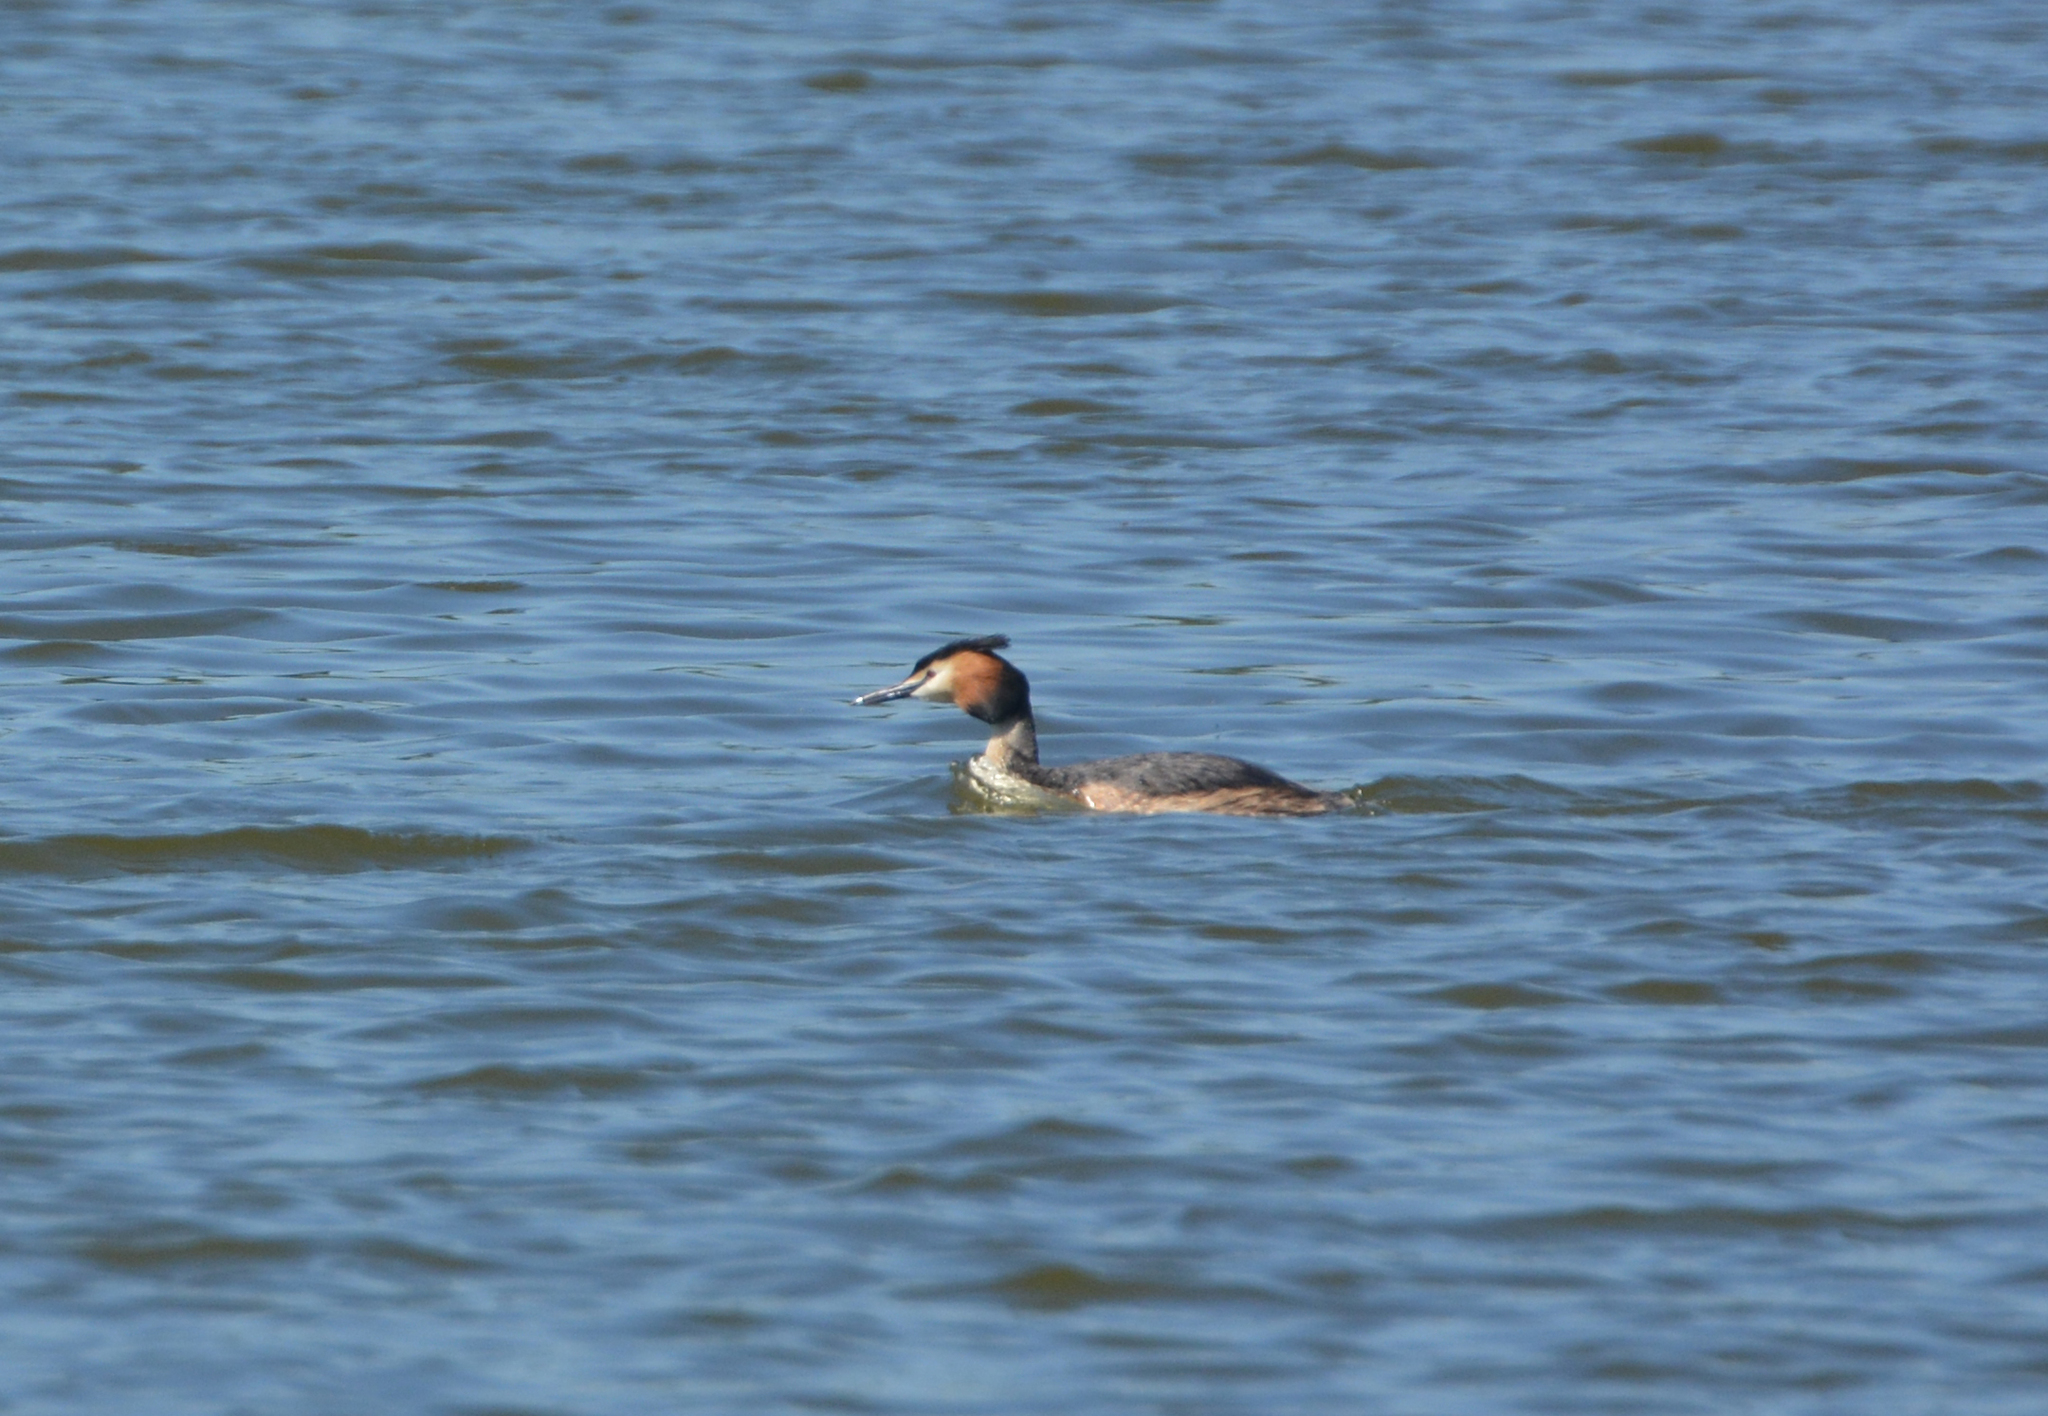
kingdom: Animalia
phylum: Chordata
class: Aves
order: Podicipediformes
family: Podicipedidae
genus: Podiceps
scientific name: Podiceps cristatus
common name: Great crested grebe
